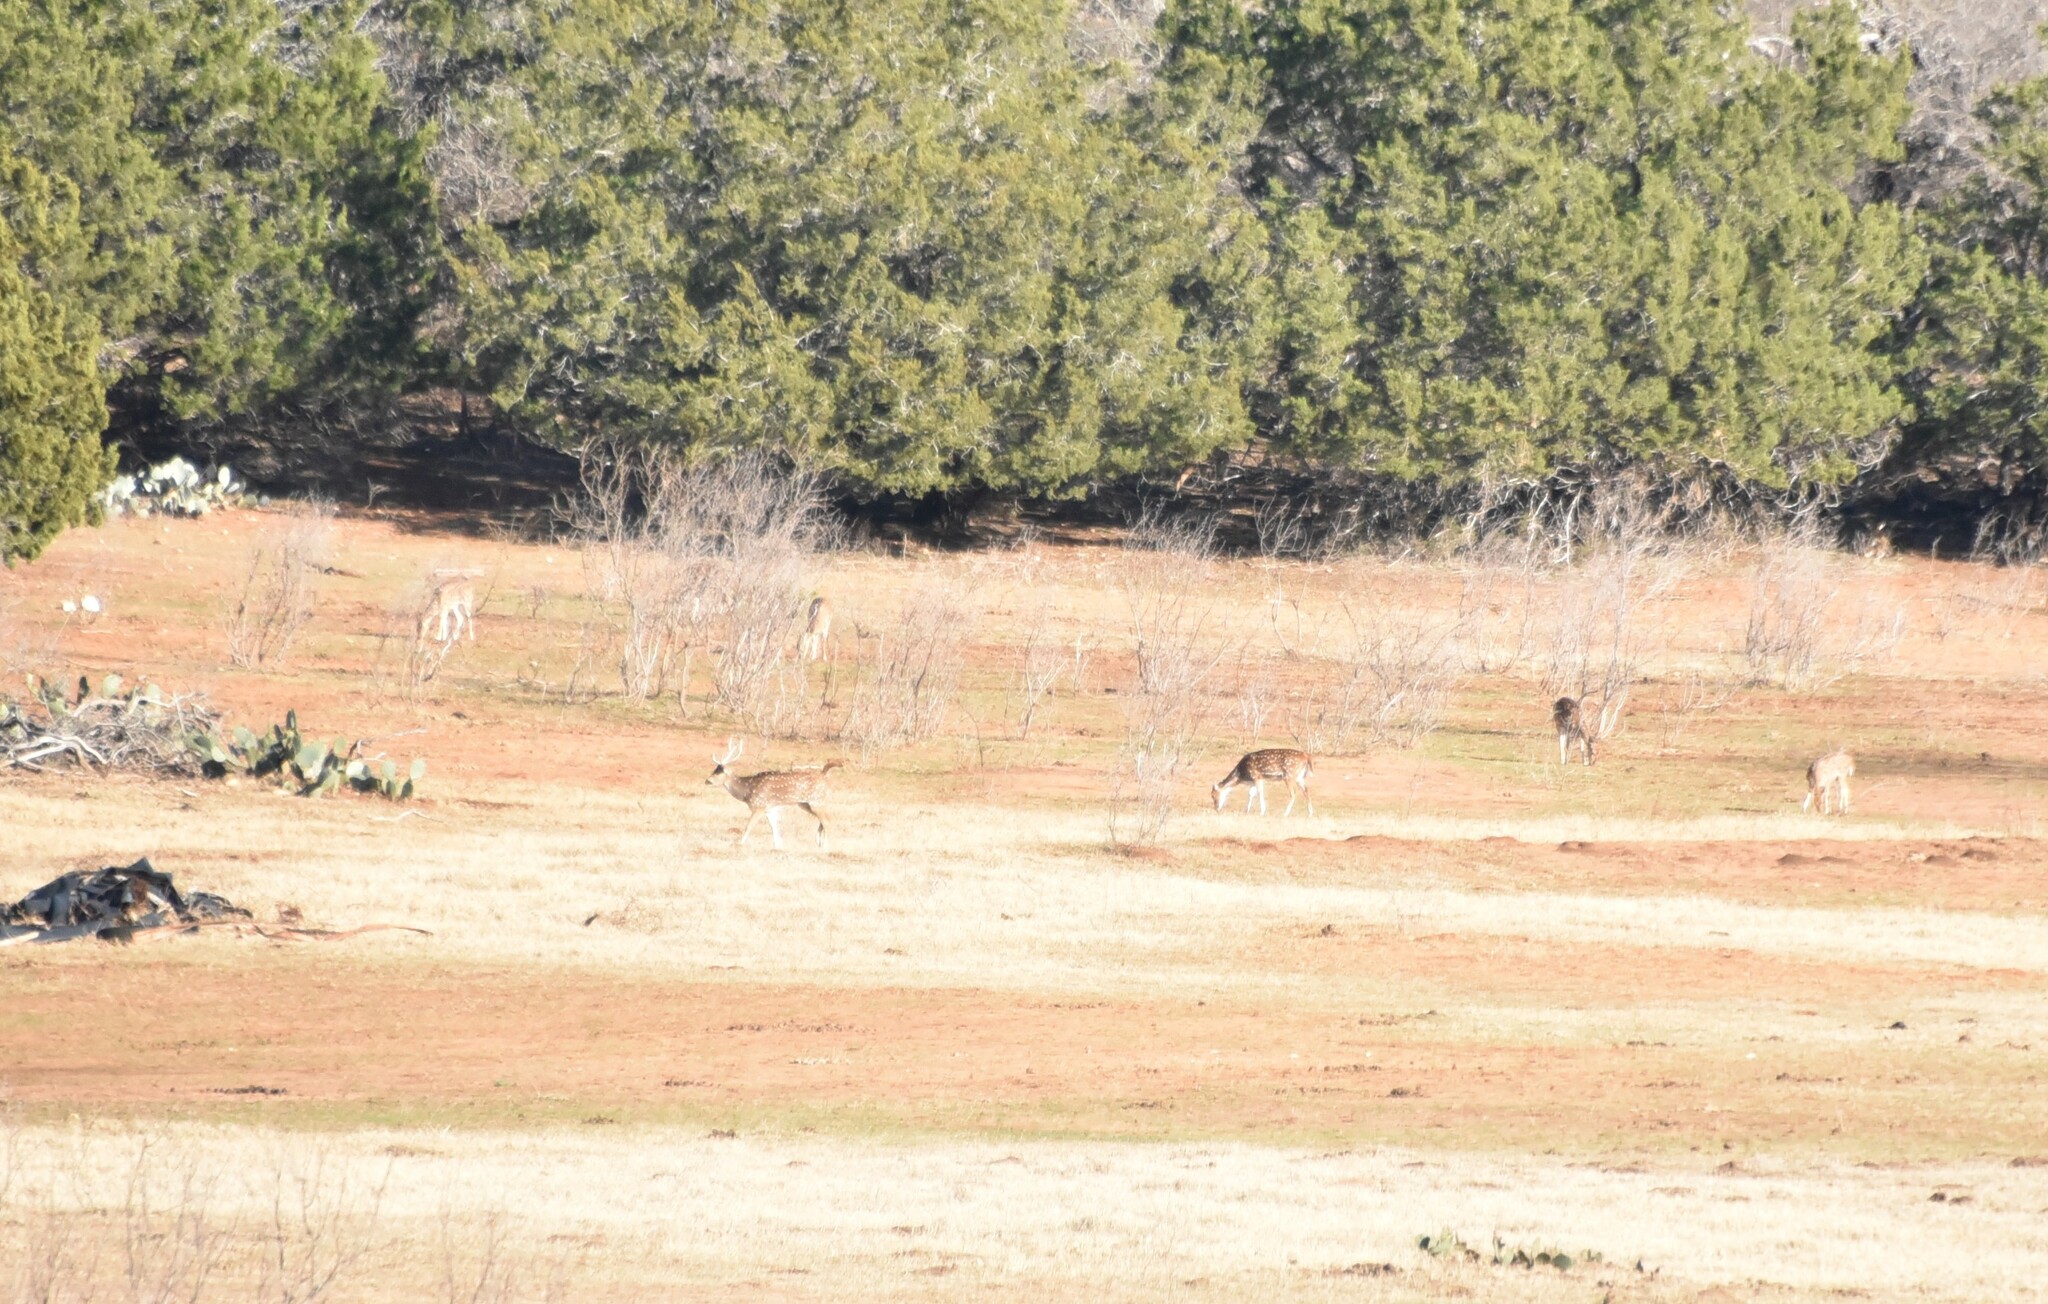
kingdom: Animalia
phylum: Chordata
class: Mammalia
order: Artiodactyla
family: Cervidae
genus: Axis
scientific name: Axis axis
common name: Chital
